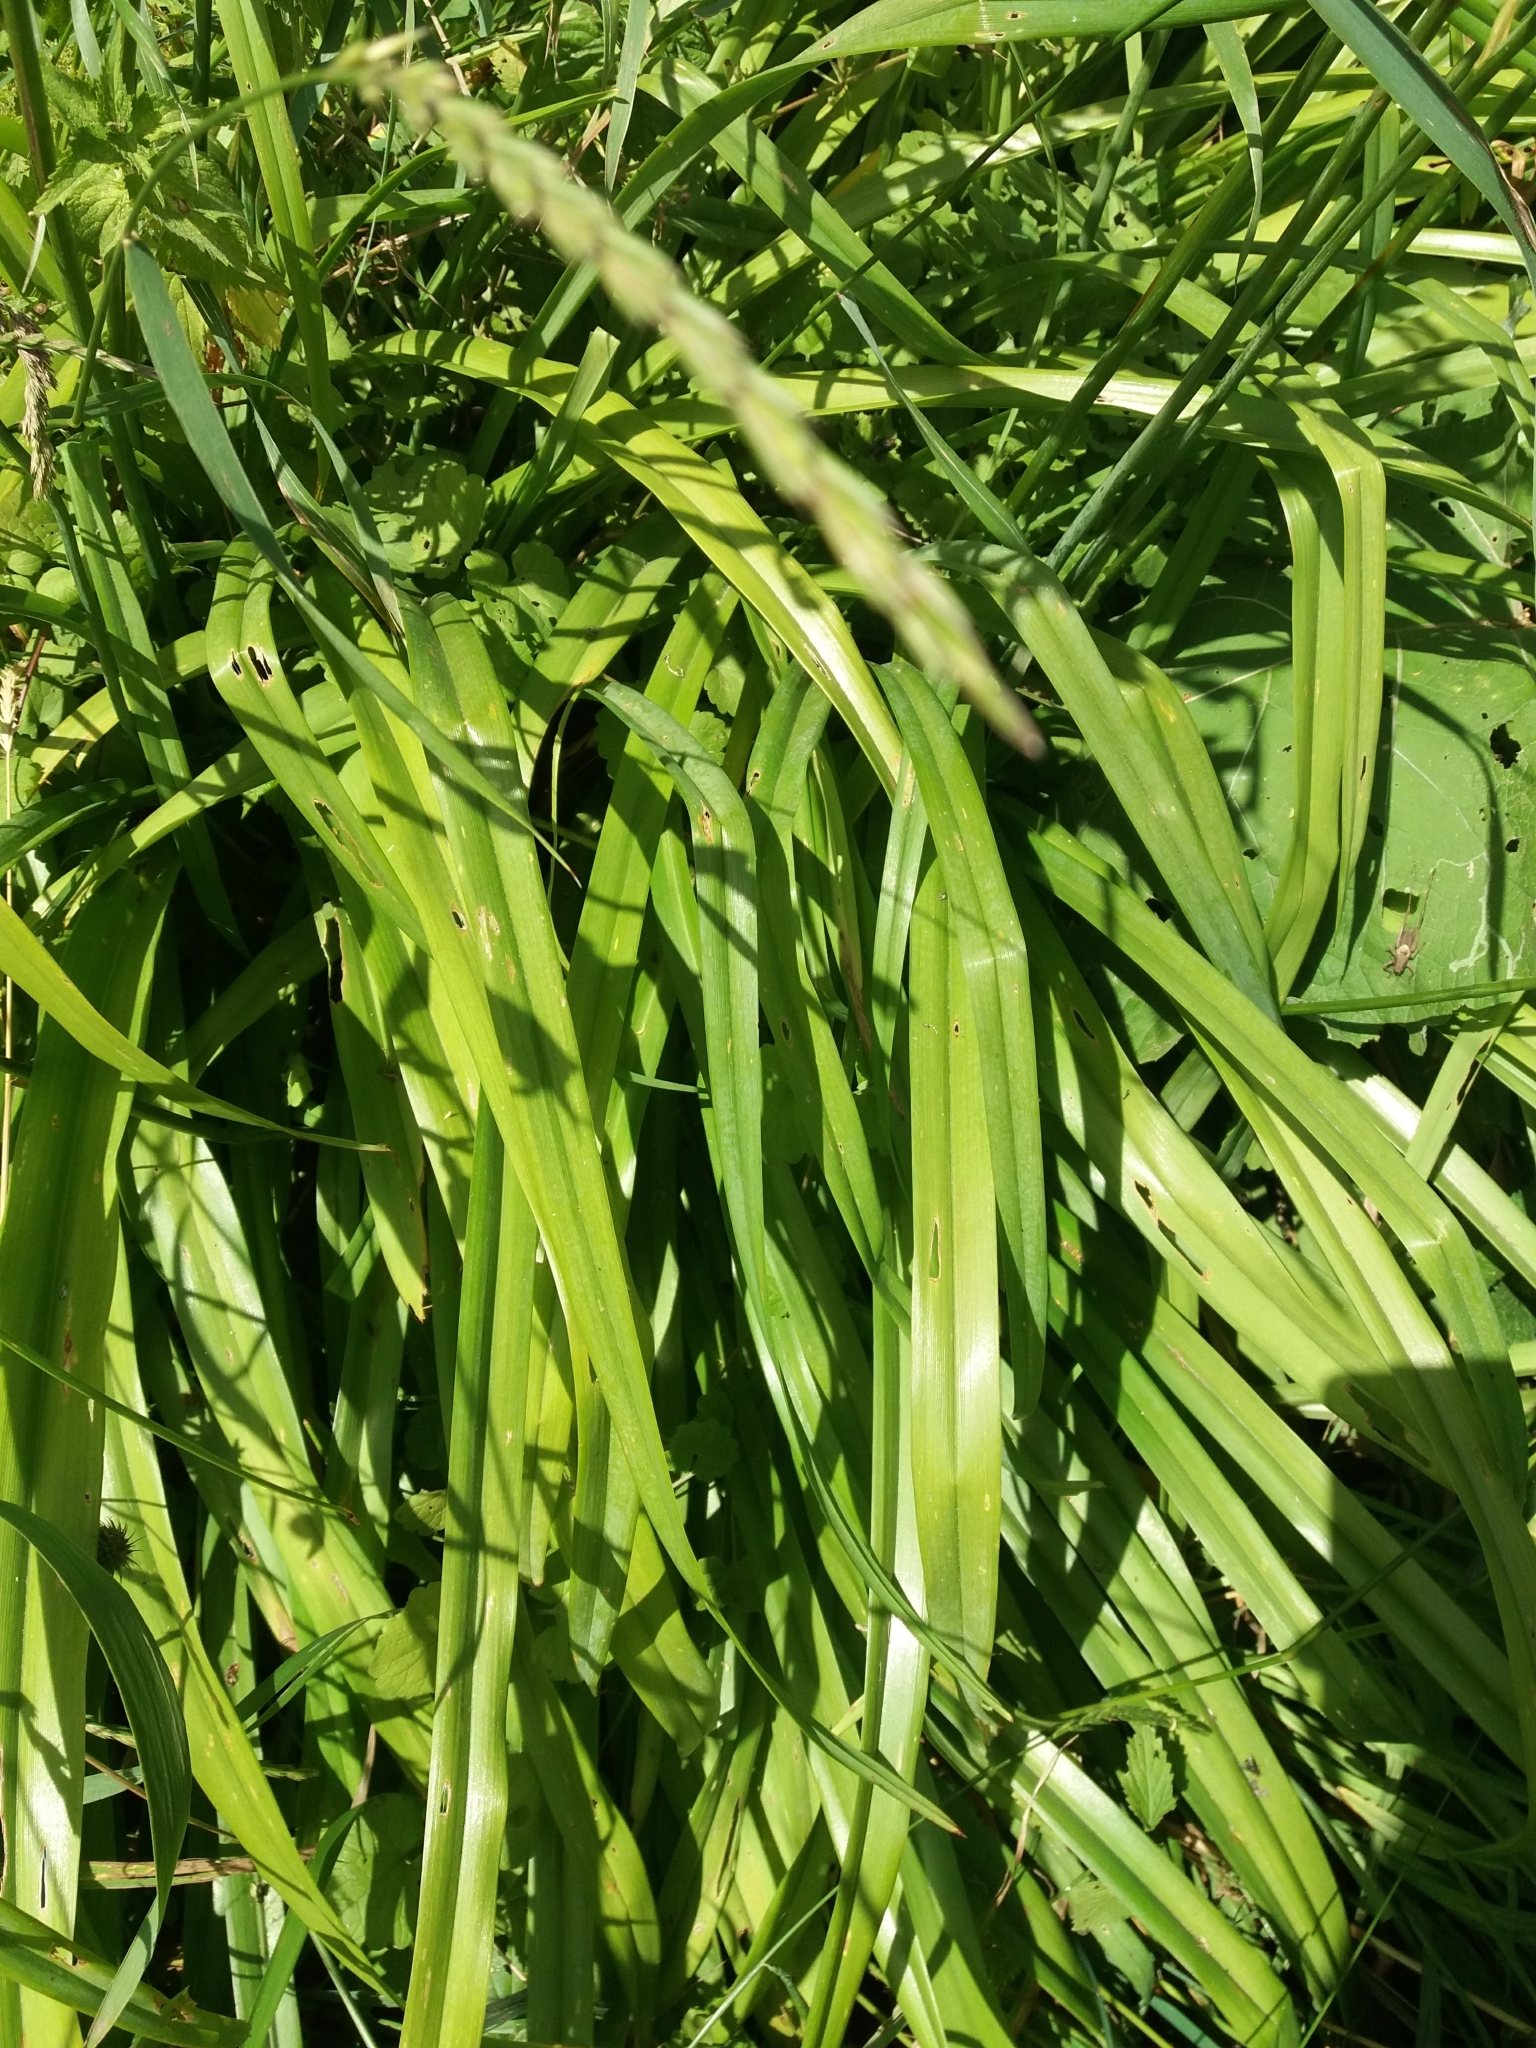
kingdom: Plantae
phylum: Tracheophyta
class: Liliopsida
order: Asparagales
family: Asphodelaceae
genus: Hemerocallis
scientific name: Hemerocallis fulva
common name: Orange day-lily
